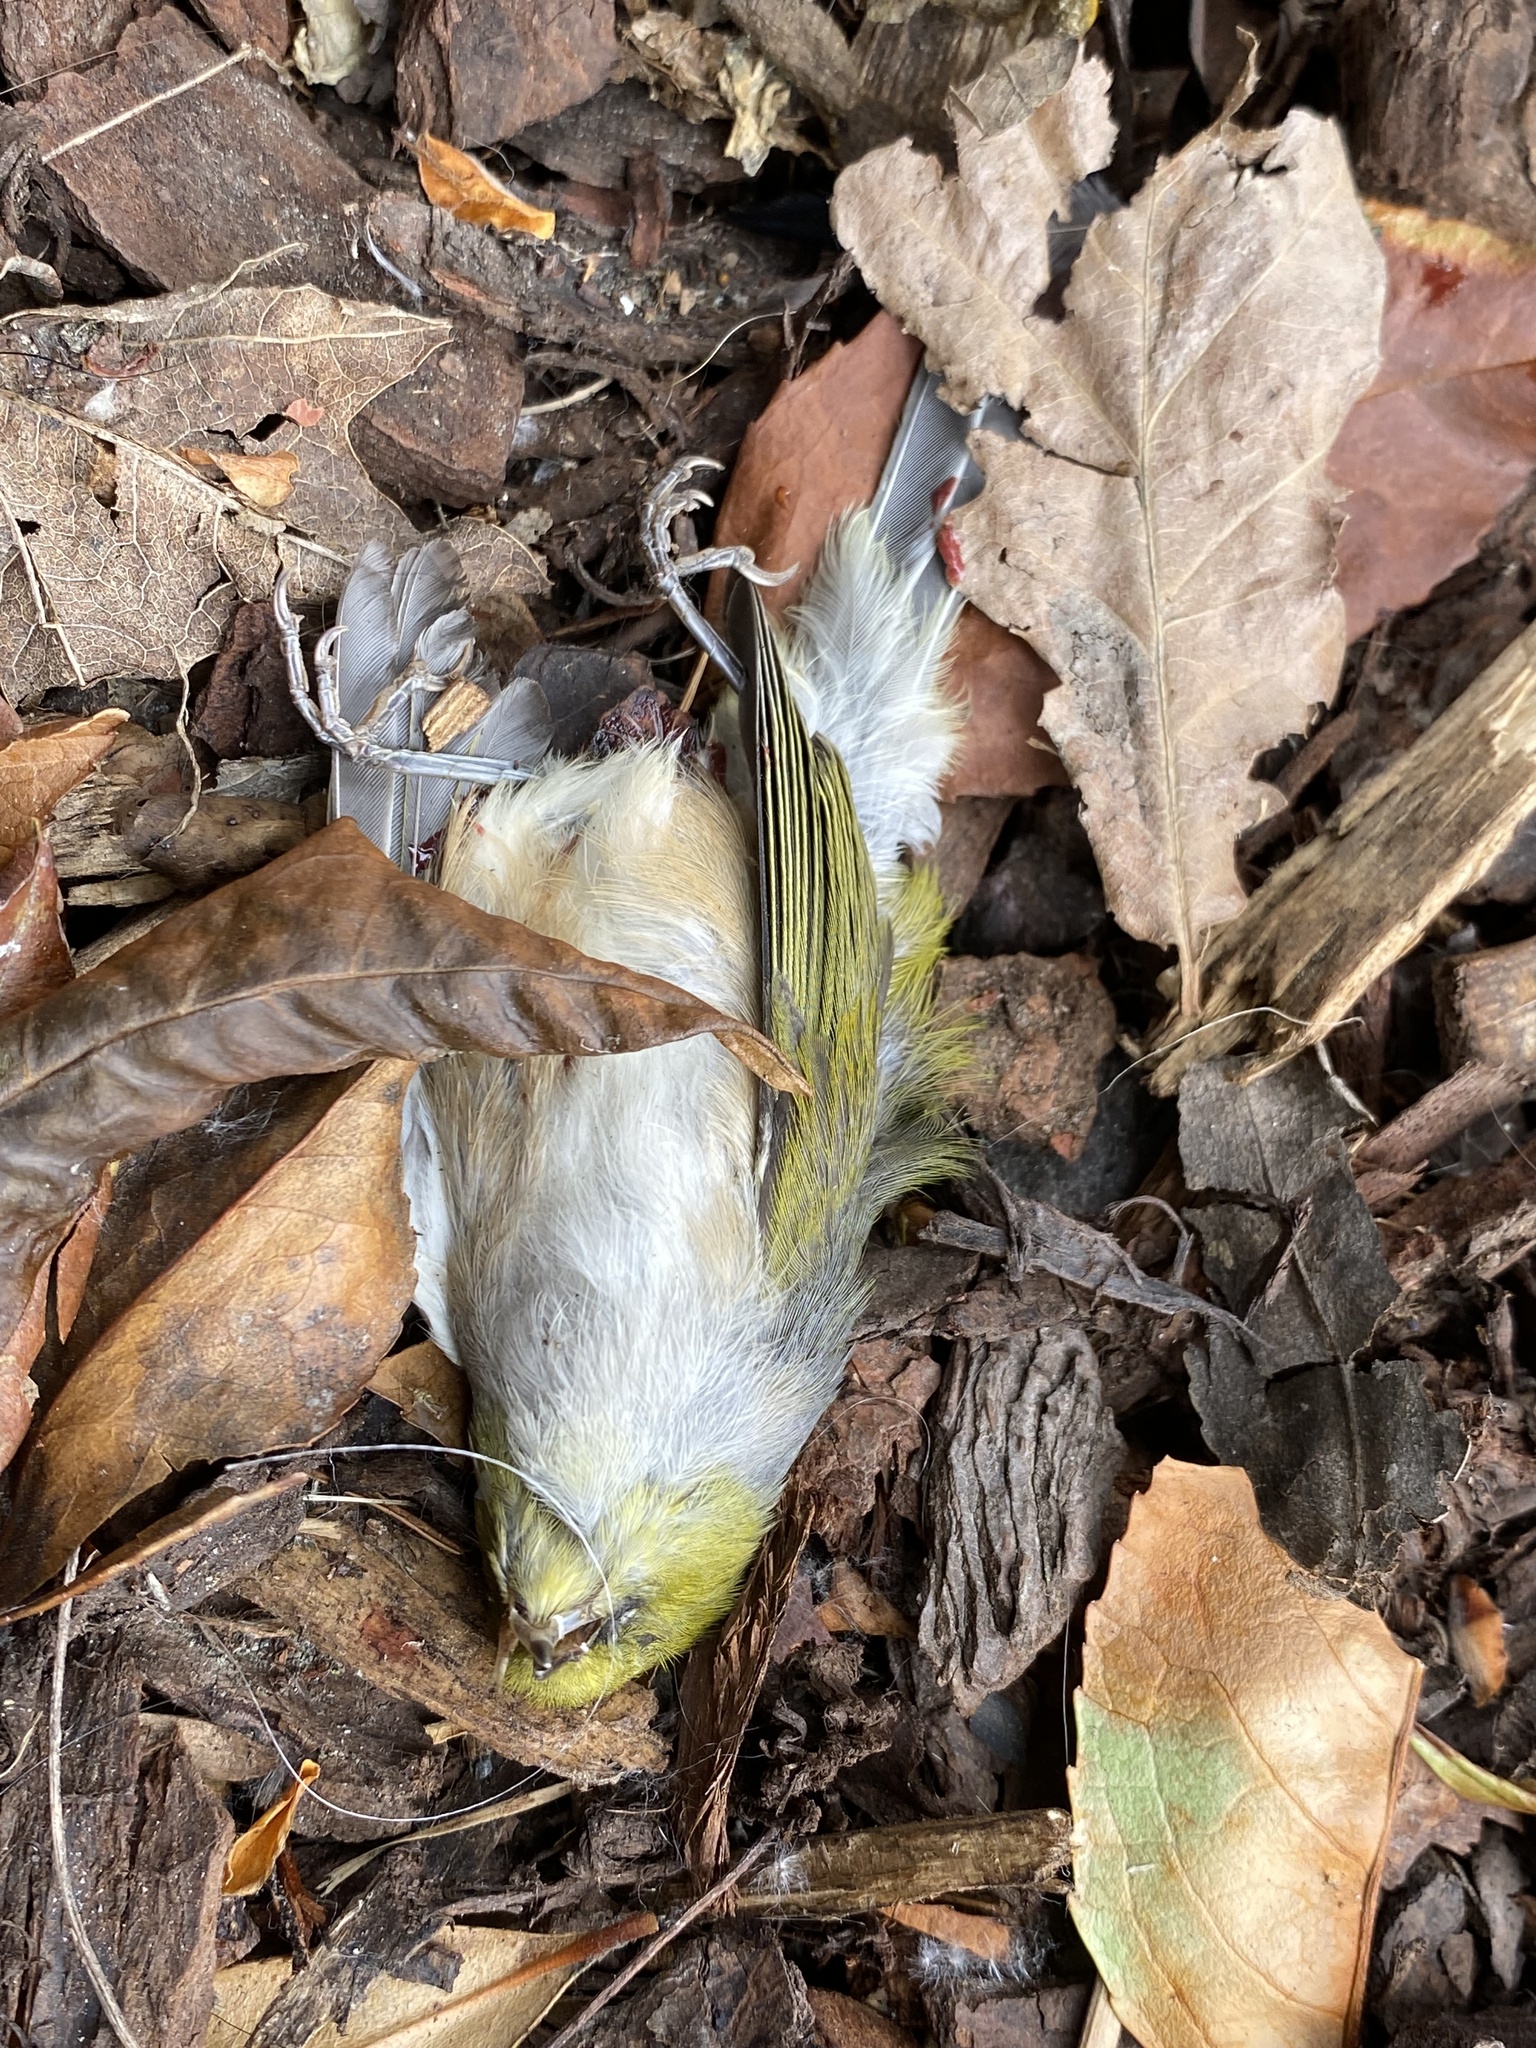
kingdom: Animalia
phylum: Chordata
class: Aves
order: Passeriformes
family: Zosteropidae
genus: Zosterops
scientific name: Zosterops lateralis
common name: Silvereye
